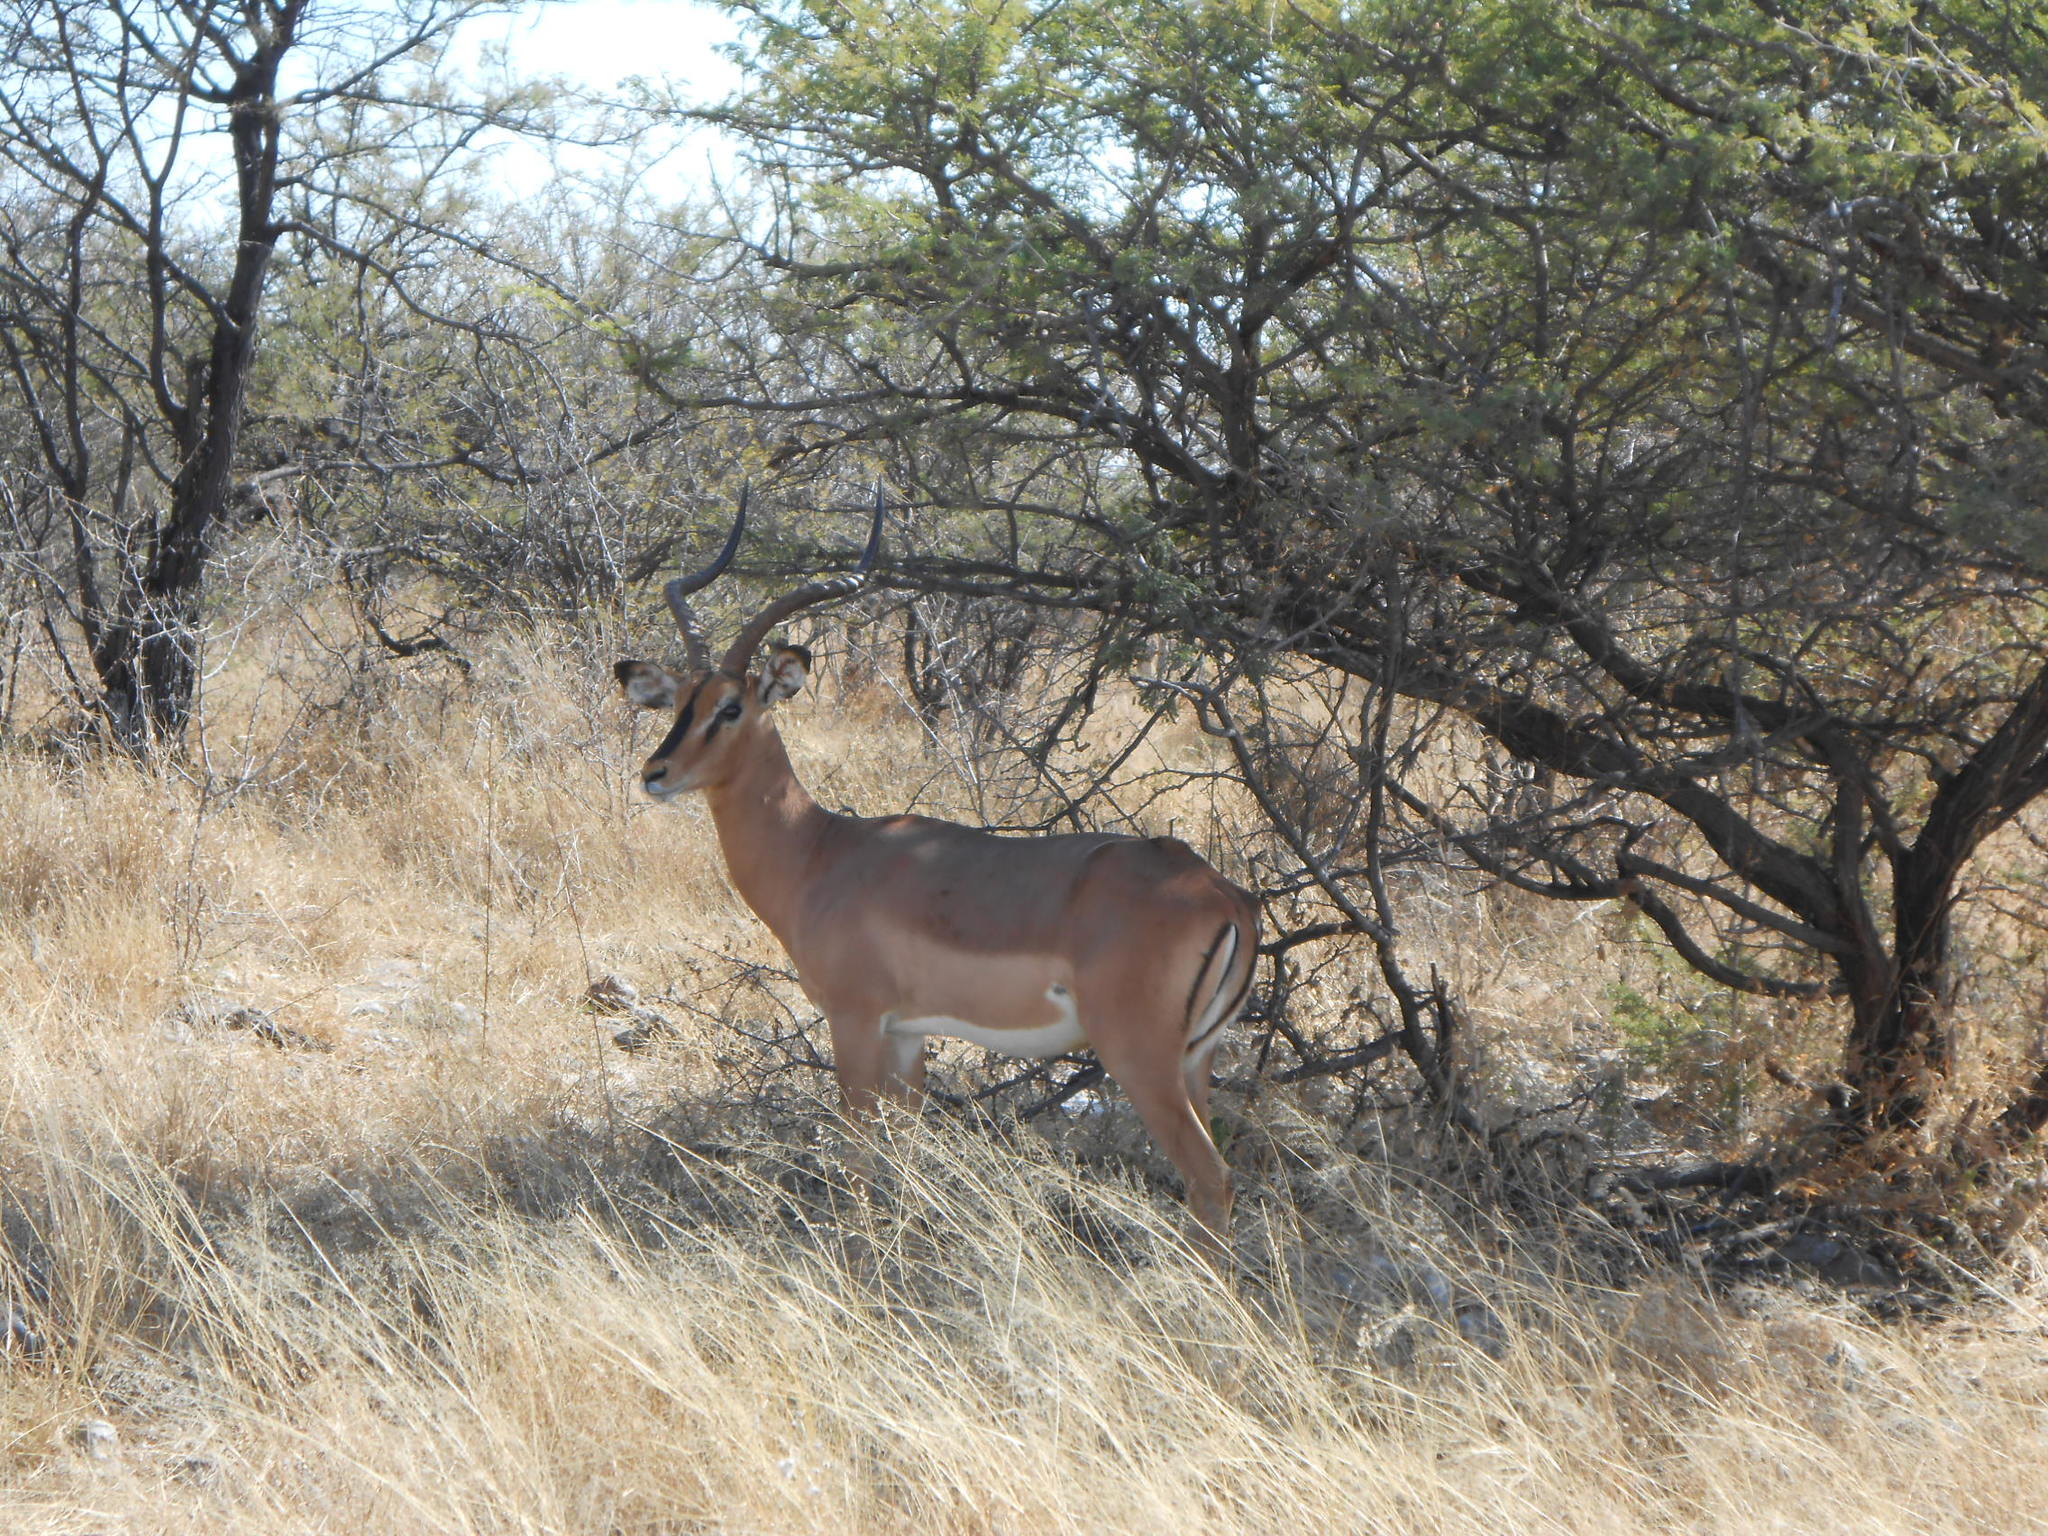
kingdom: Animalia
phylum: Chordata
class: Mammalia
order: Artiodactyla
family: Bovidae
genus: Aepyceros
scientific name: Aepyceros melampus
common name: Impala
